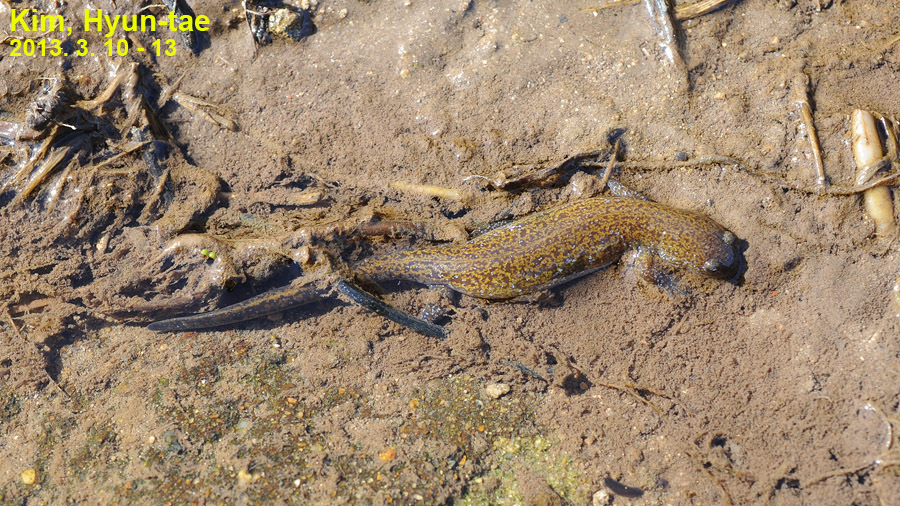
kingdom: Animalia
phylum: Chordata
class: Amphibia
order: Caudata
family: Hynobiidae
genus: Hynobius
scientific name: Hynobius geojeensis
